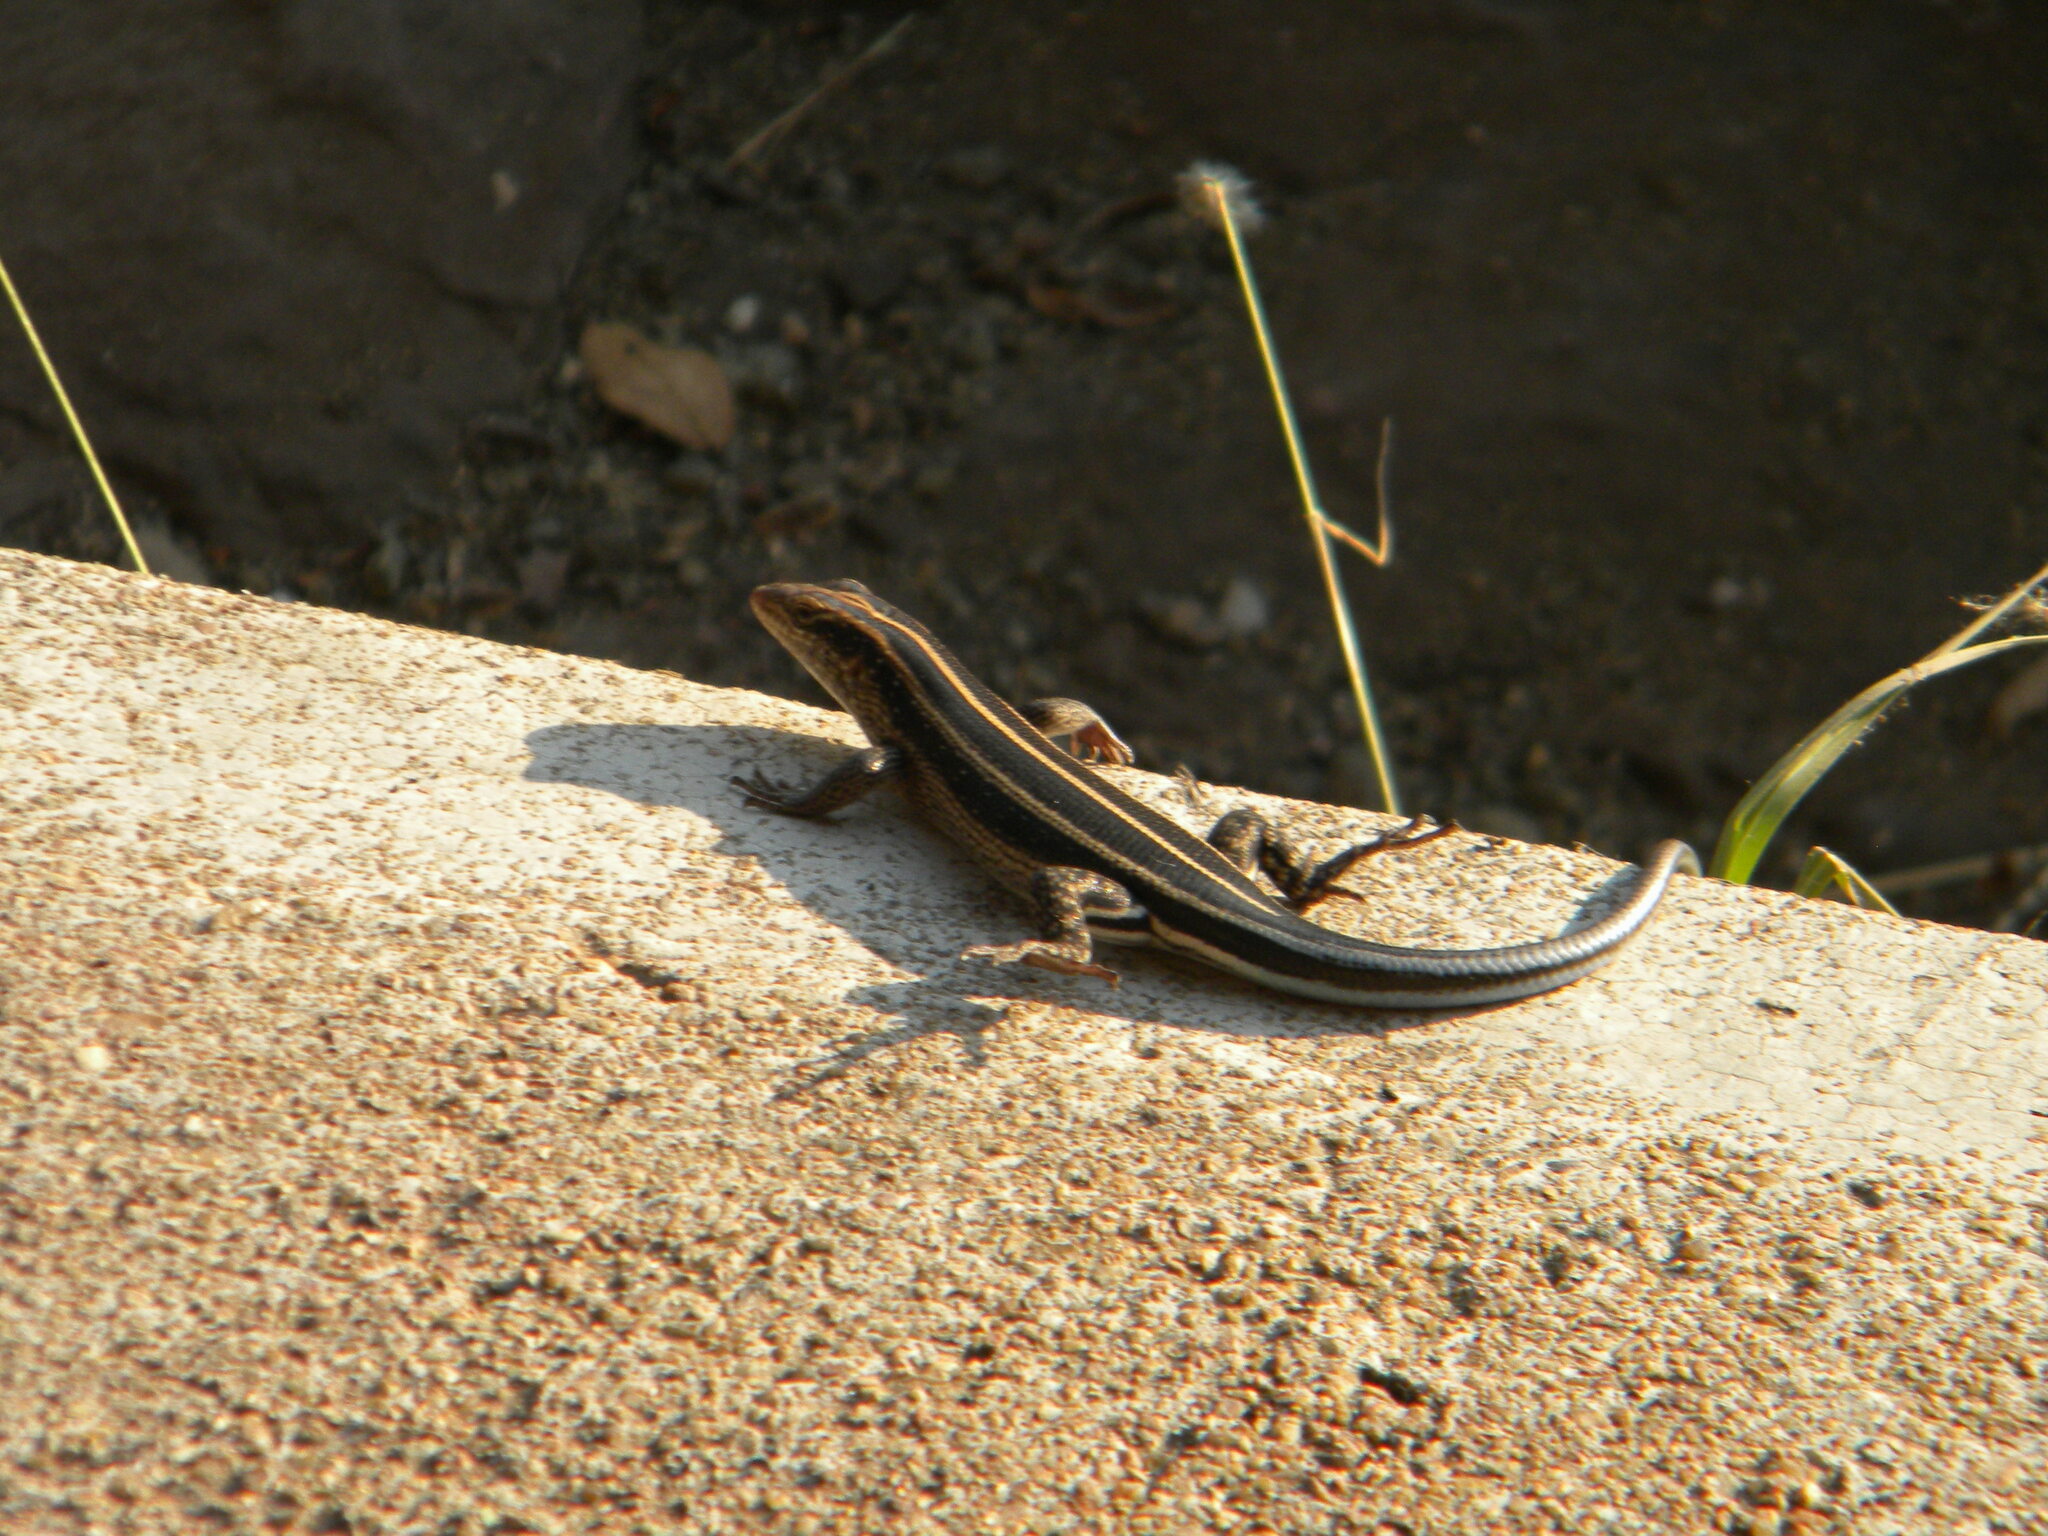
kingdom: Animalia
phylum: Chordata
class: Squamata
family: Scincidae
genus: Trachylepis
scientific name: Trachylepis margaritifera
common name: Rainbow skink
